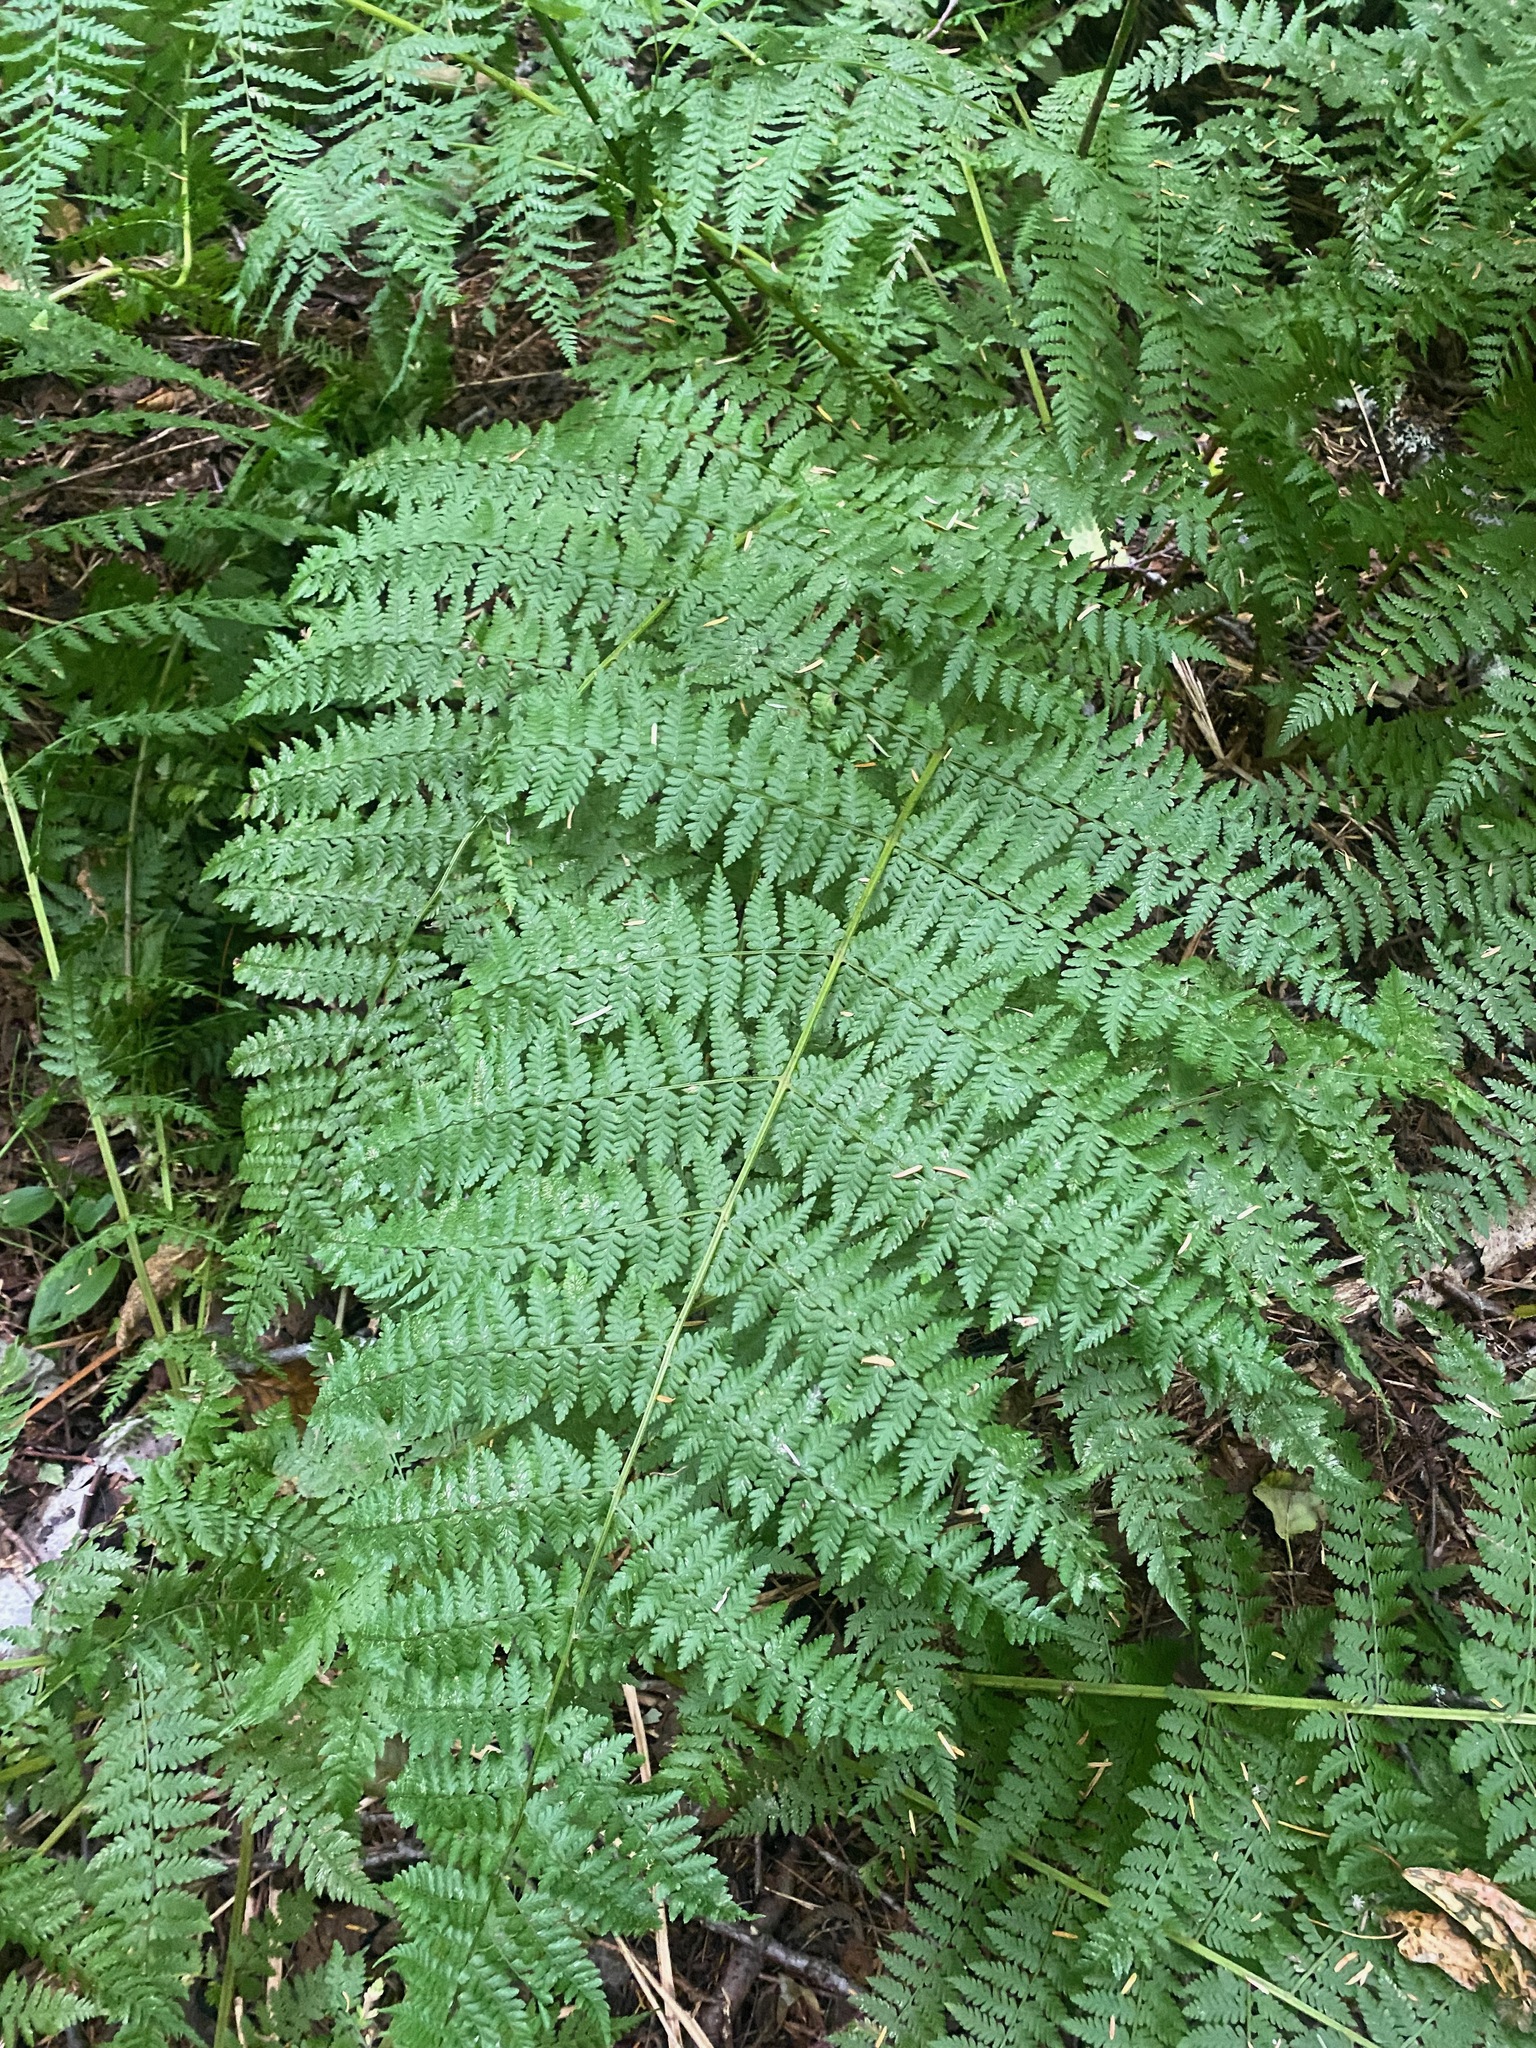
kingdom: Plantae
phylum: Tracheophyta
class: Polypodiopsida
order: Polypodiales
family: Athyriaceae
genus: Athyrium
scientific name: Athyrium filix-femina
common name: Lady fern
